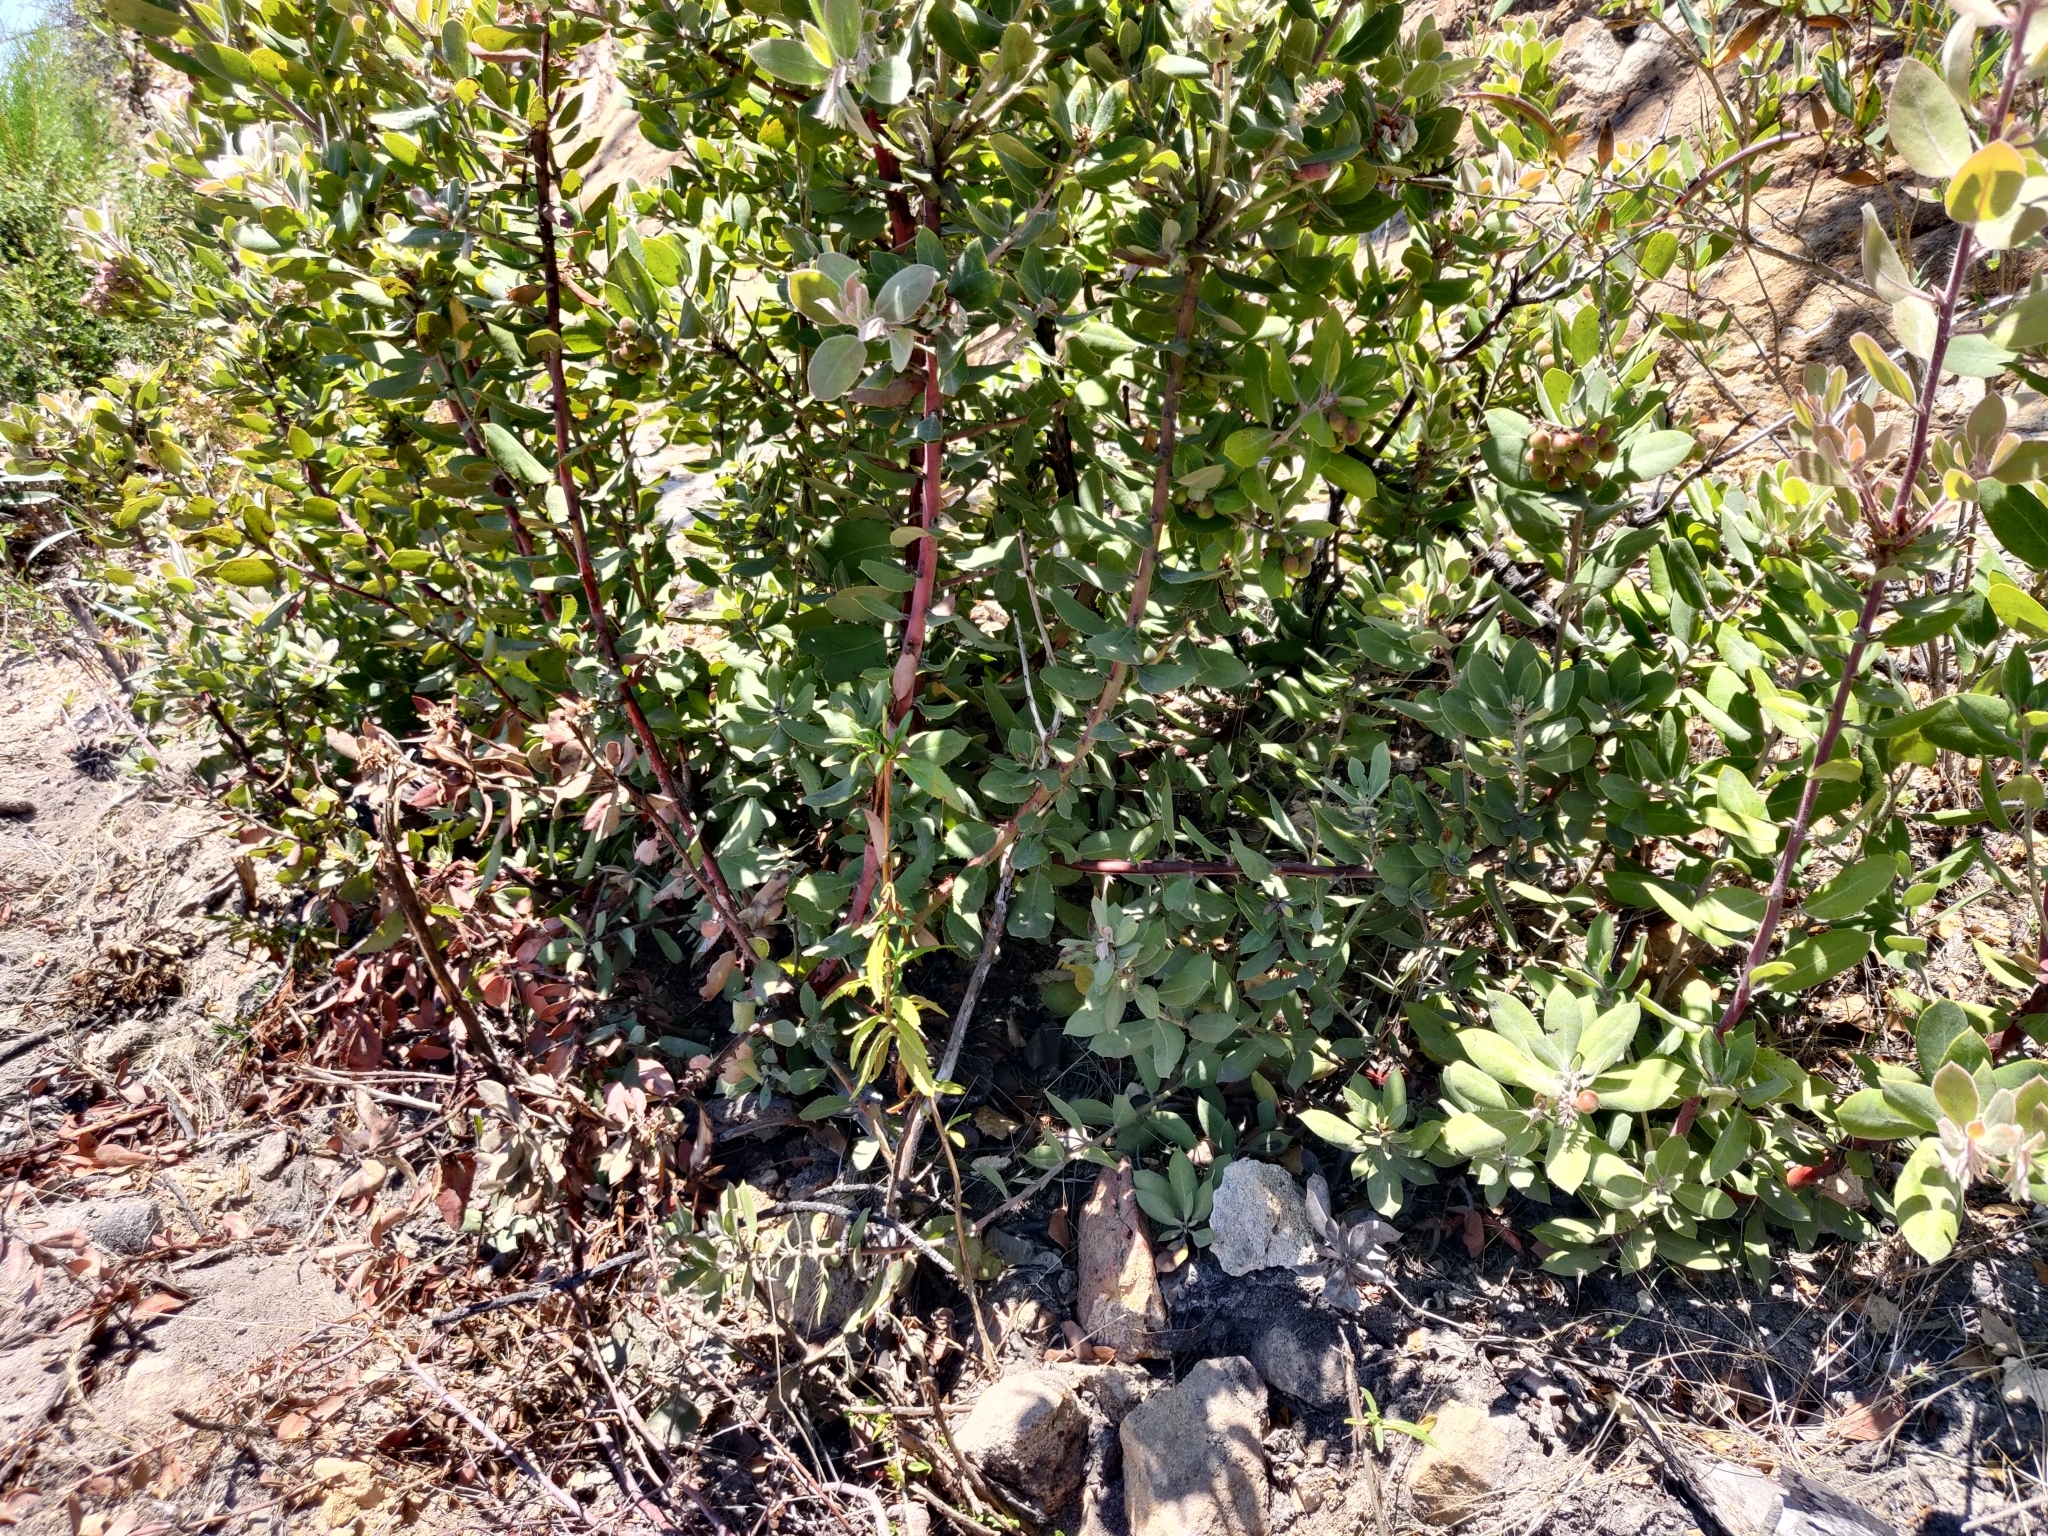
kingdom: Plantae
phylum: Tracheophyta
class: Magnoliopsida
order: Ericales
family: Ericaceae
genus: Arctostaphylos
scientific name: Arctostaphylos crustacea
